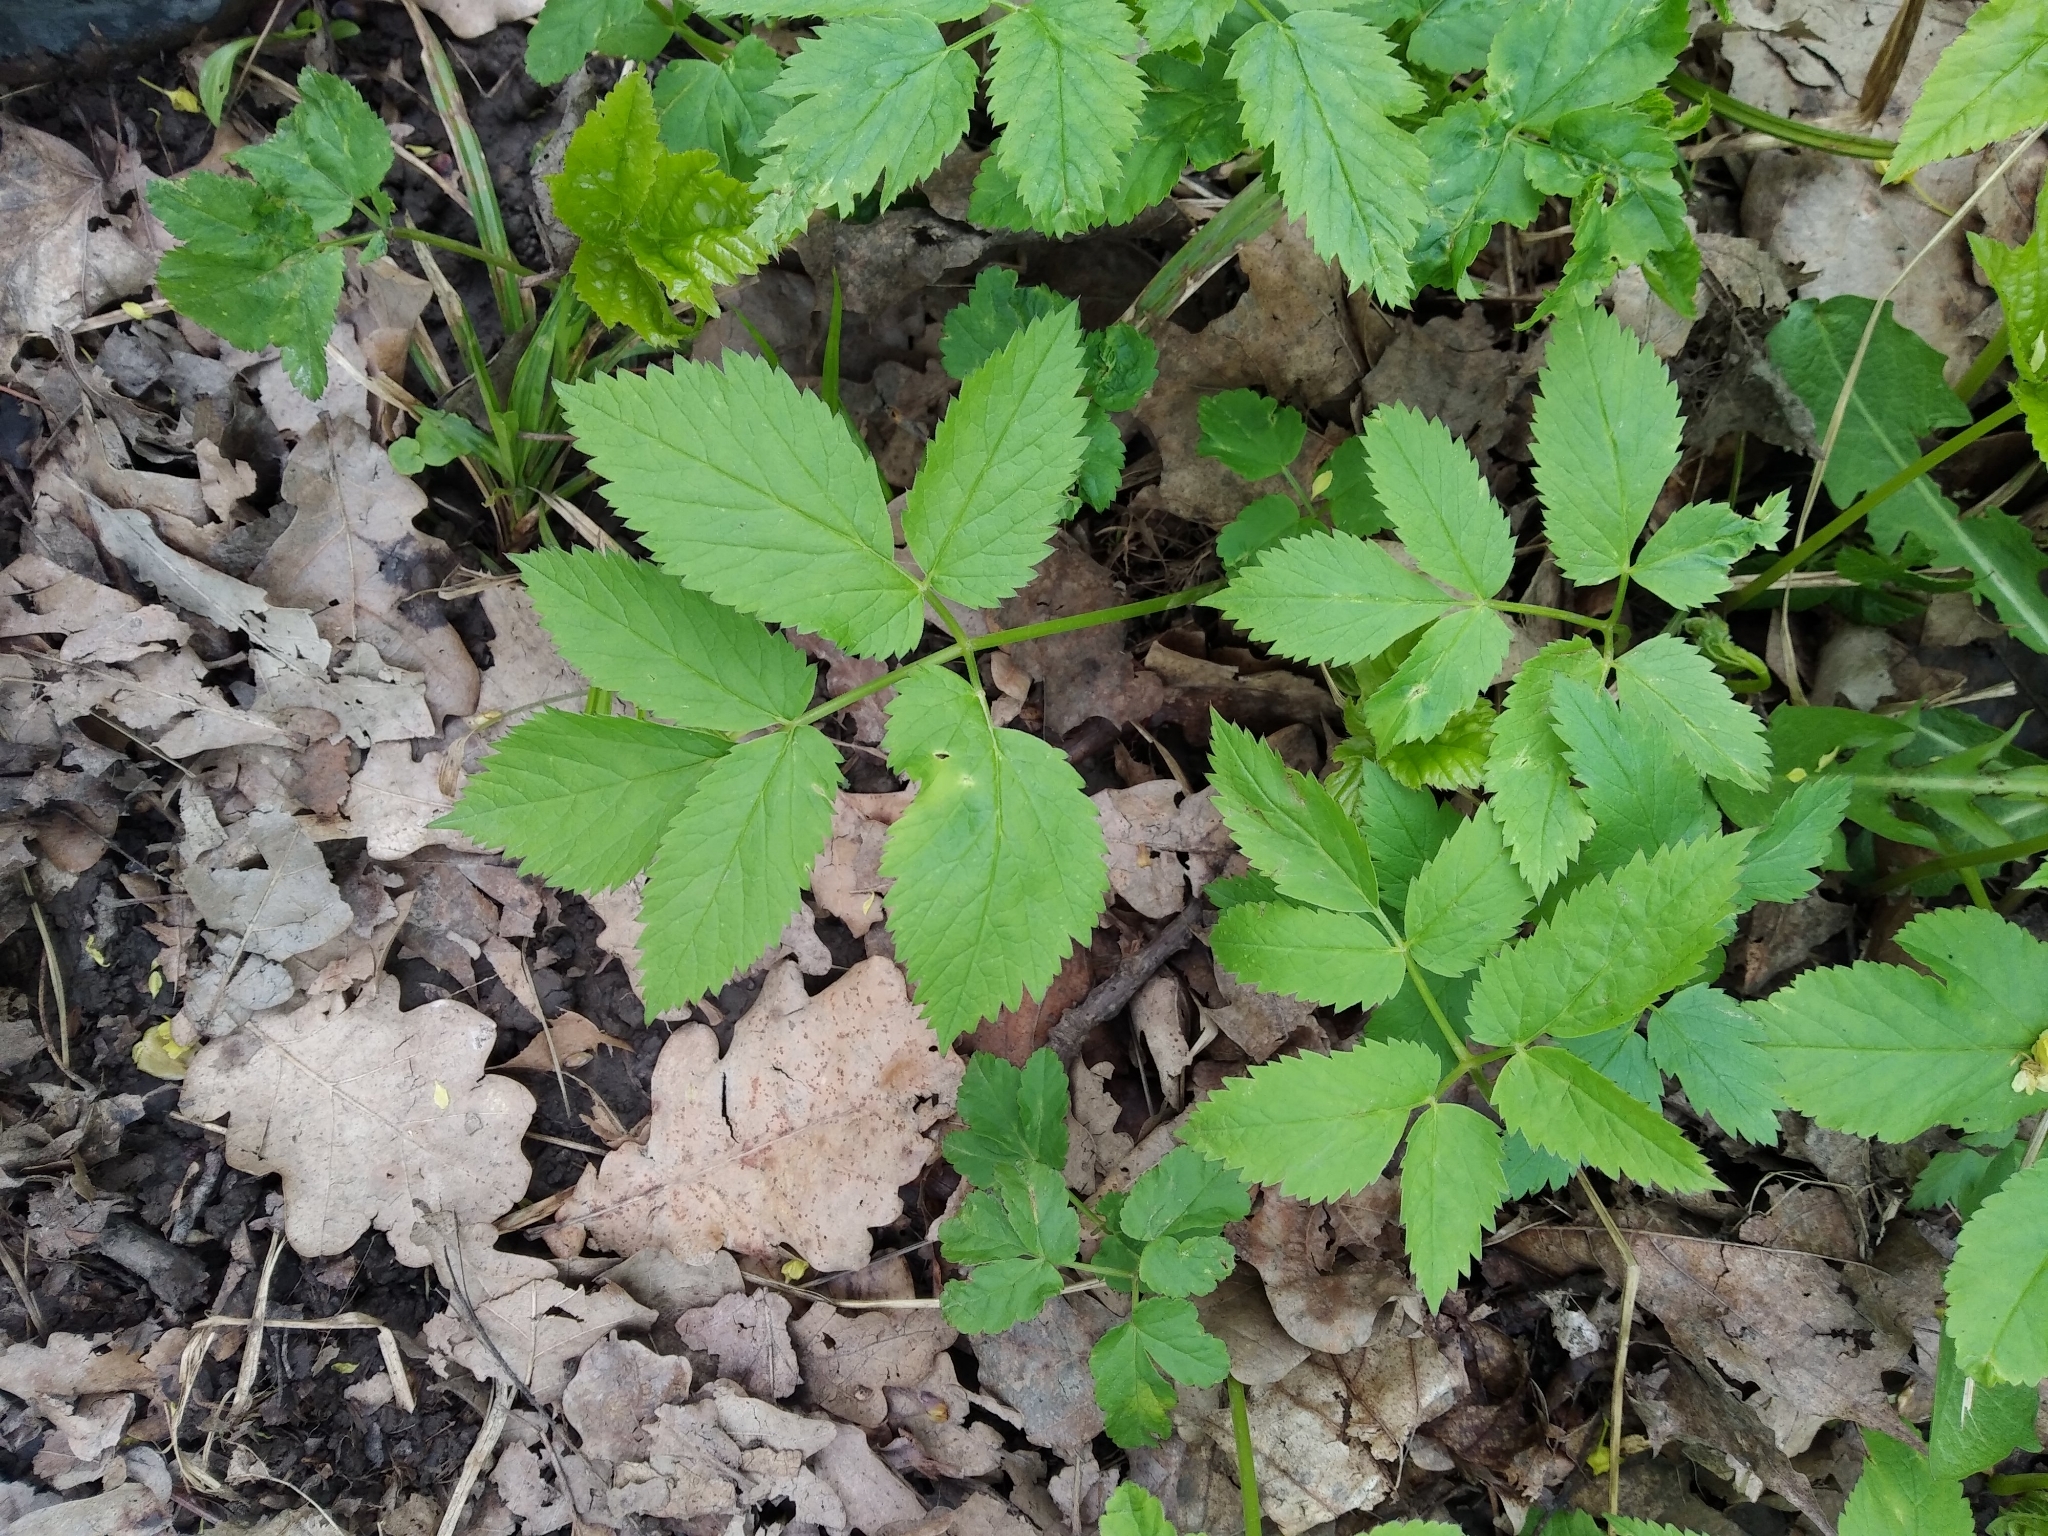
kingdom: Plantae
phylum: Tracheophyta
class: Magnoliopsida
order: Apiales
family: Apiaceae
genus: Aegopodium
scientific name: Aegopodium podagraria
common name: Ground-elder
